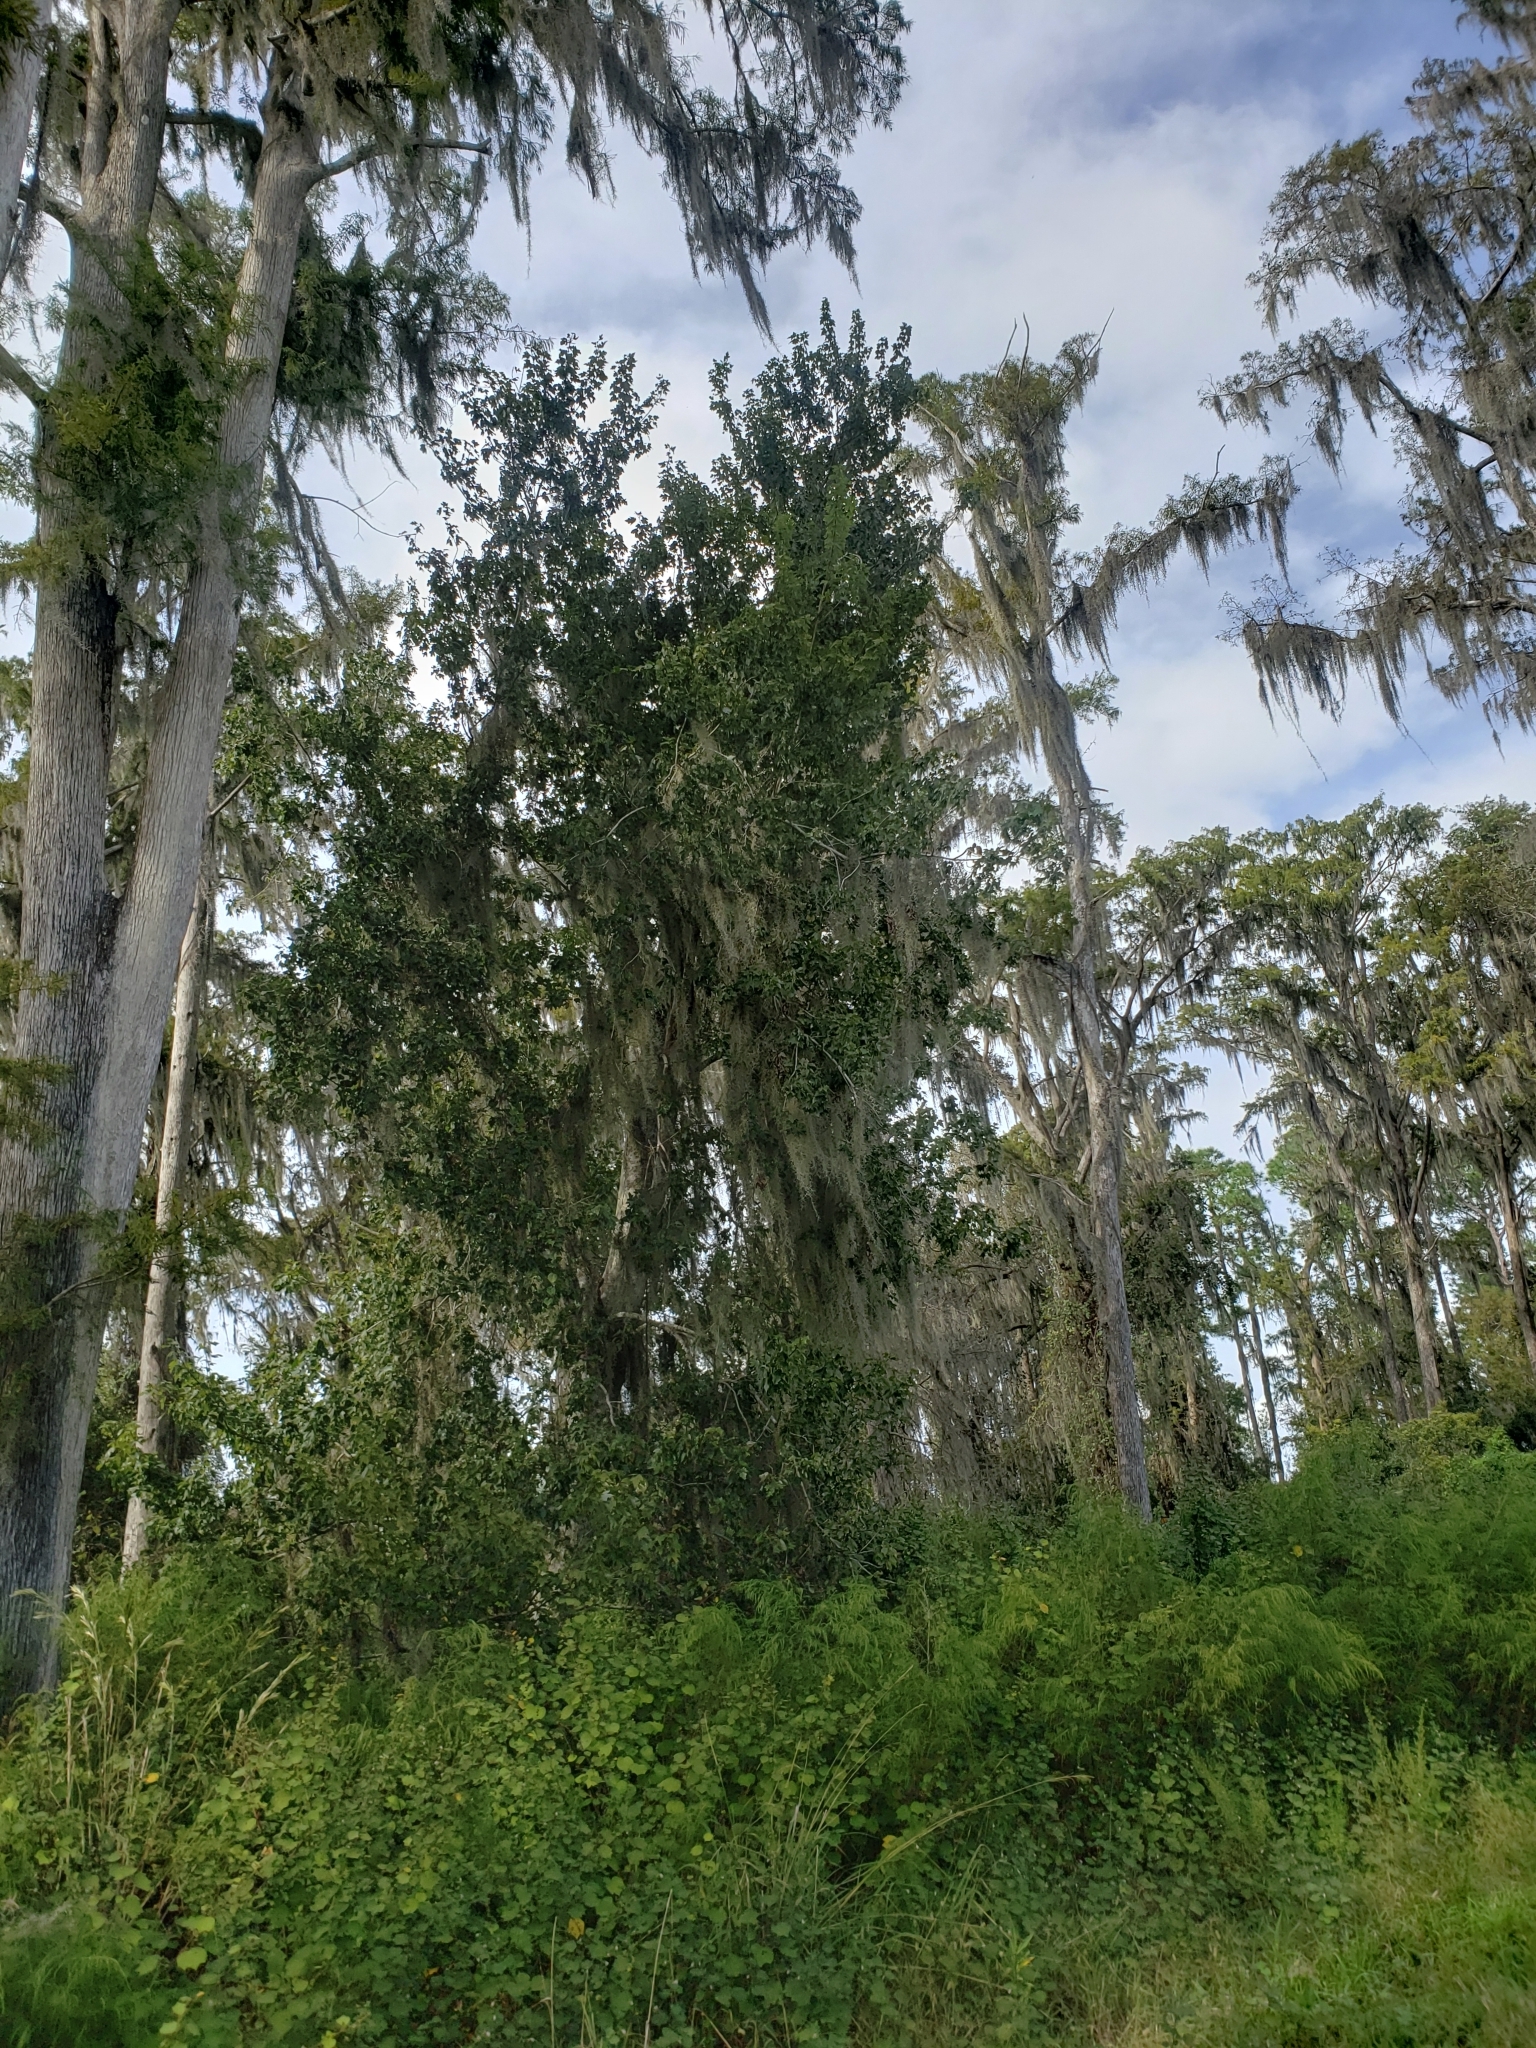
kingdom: Plantae
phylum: Tracheophyta
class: Magnoliopsida
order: Sapindales
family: Sapindaceae
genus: Acer
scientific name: Acer rubrum
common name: Red maple
